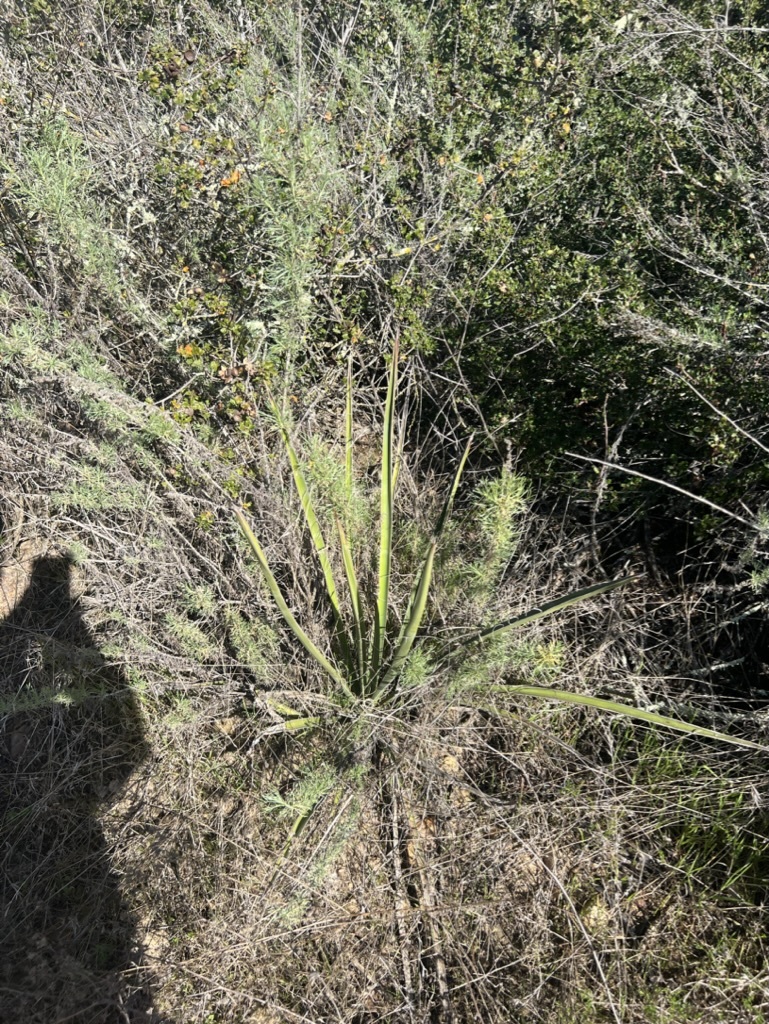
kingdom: Plantae
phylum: Tracheophyta
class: Liliopsida
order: Asparagales
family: Asparagaceae
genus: Yucca
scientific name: Yucca schidigera
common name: Mojave yucca
